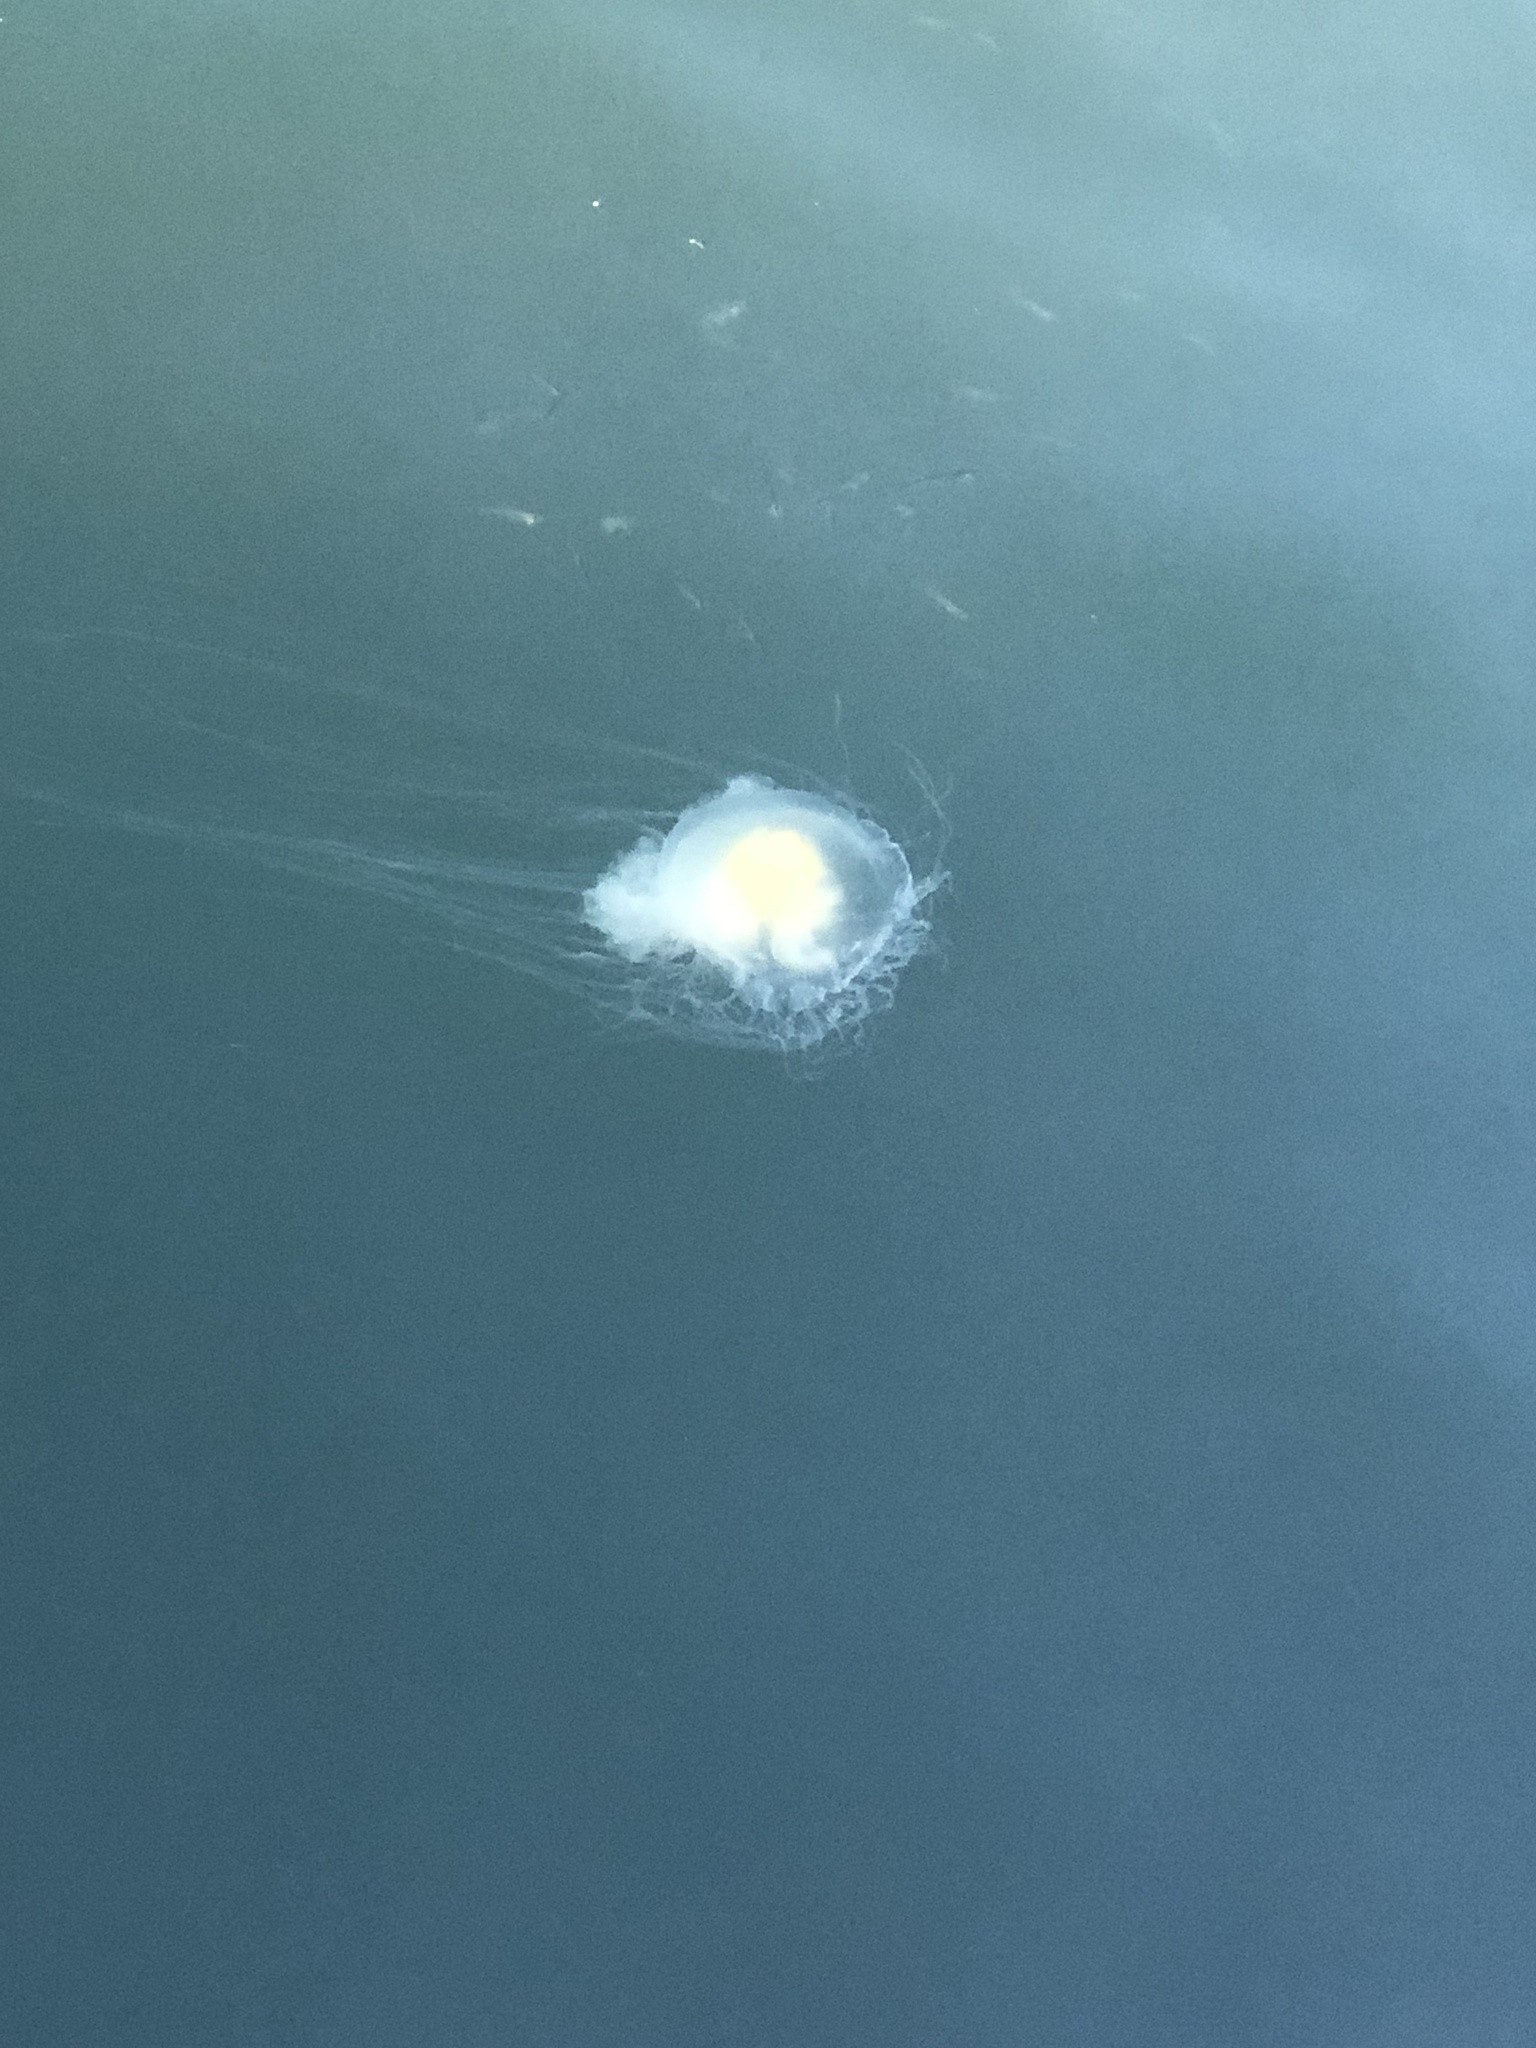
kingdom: Animalia
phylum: Cnidaria
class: Scyphozoa
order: Semaeostomeae
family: Phacellophoridae
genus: Phacellophora
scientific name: Phacellophora camtschatica
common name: Fried-egg jellyfish
